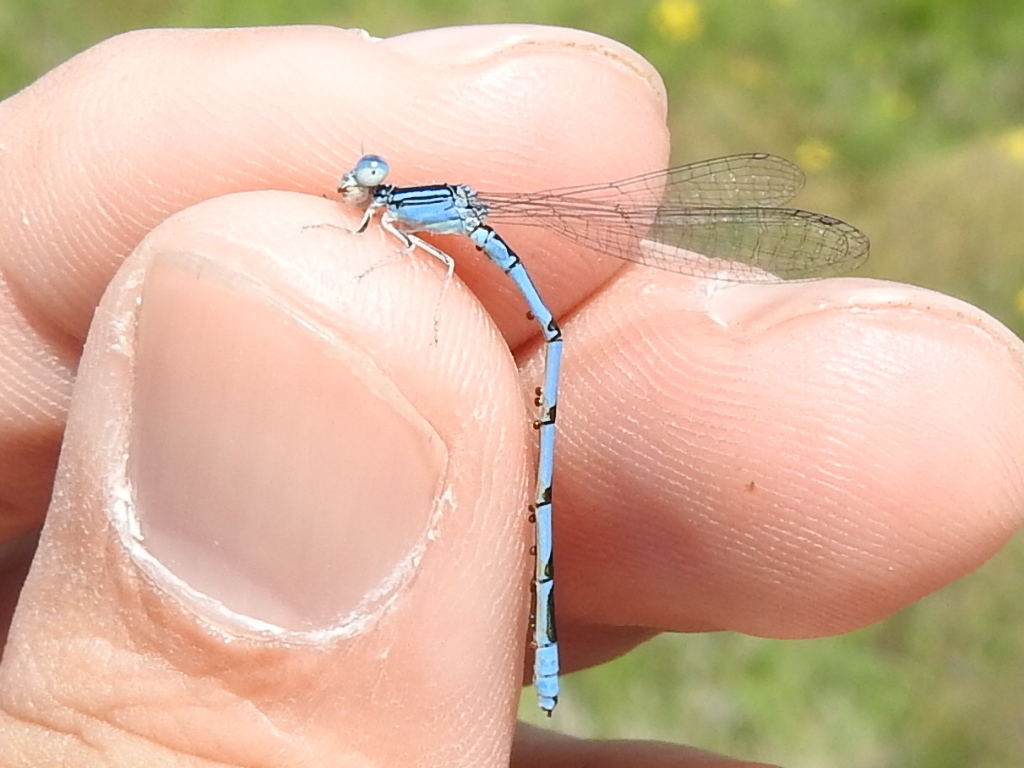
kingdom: Animalia
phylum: Arthropoda
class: Insecta
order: Odonata
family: Coenagrionidae
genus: Enallagma
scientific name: Enallagma basidens
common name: Double-striped bluet
